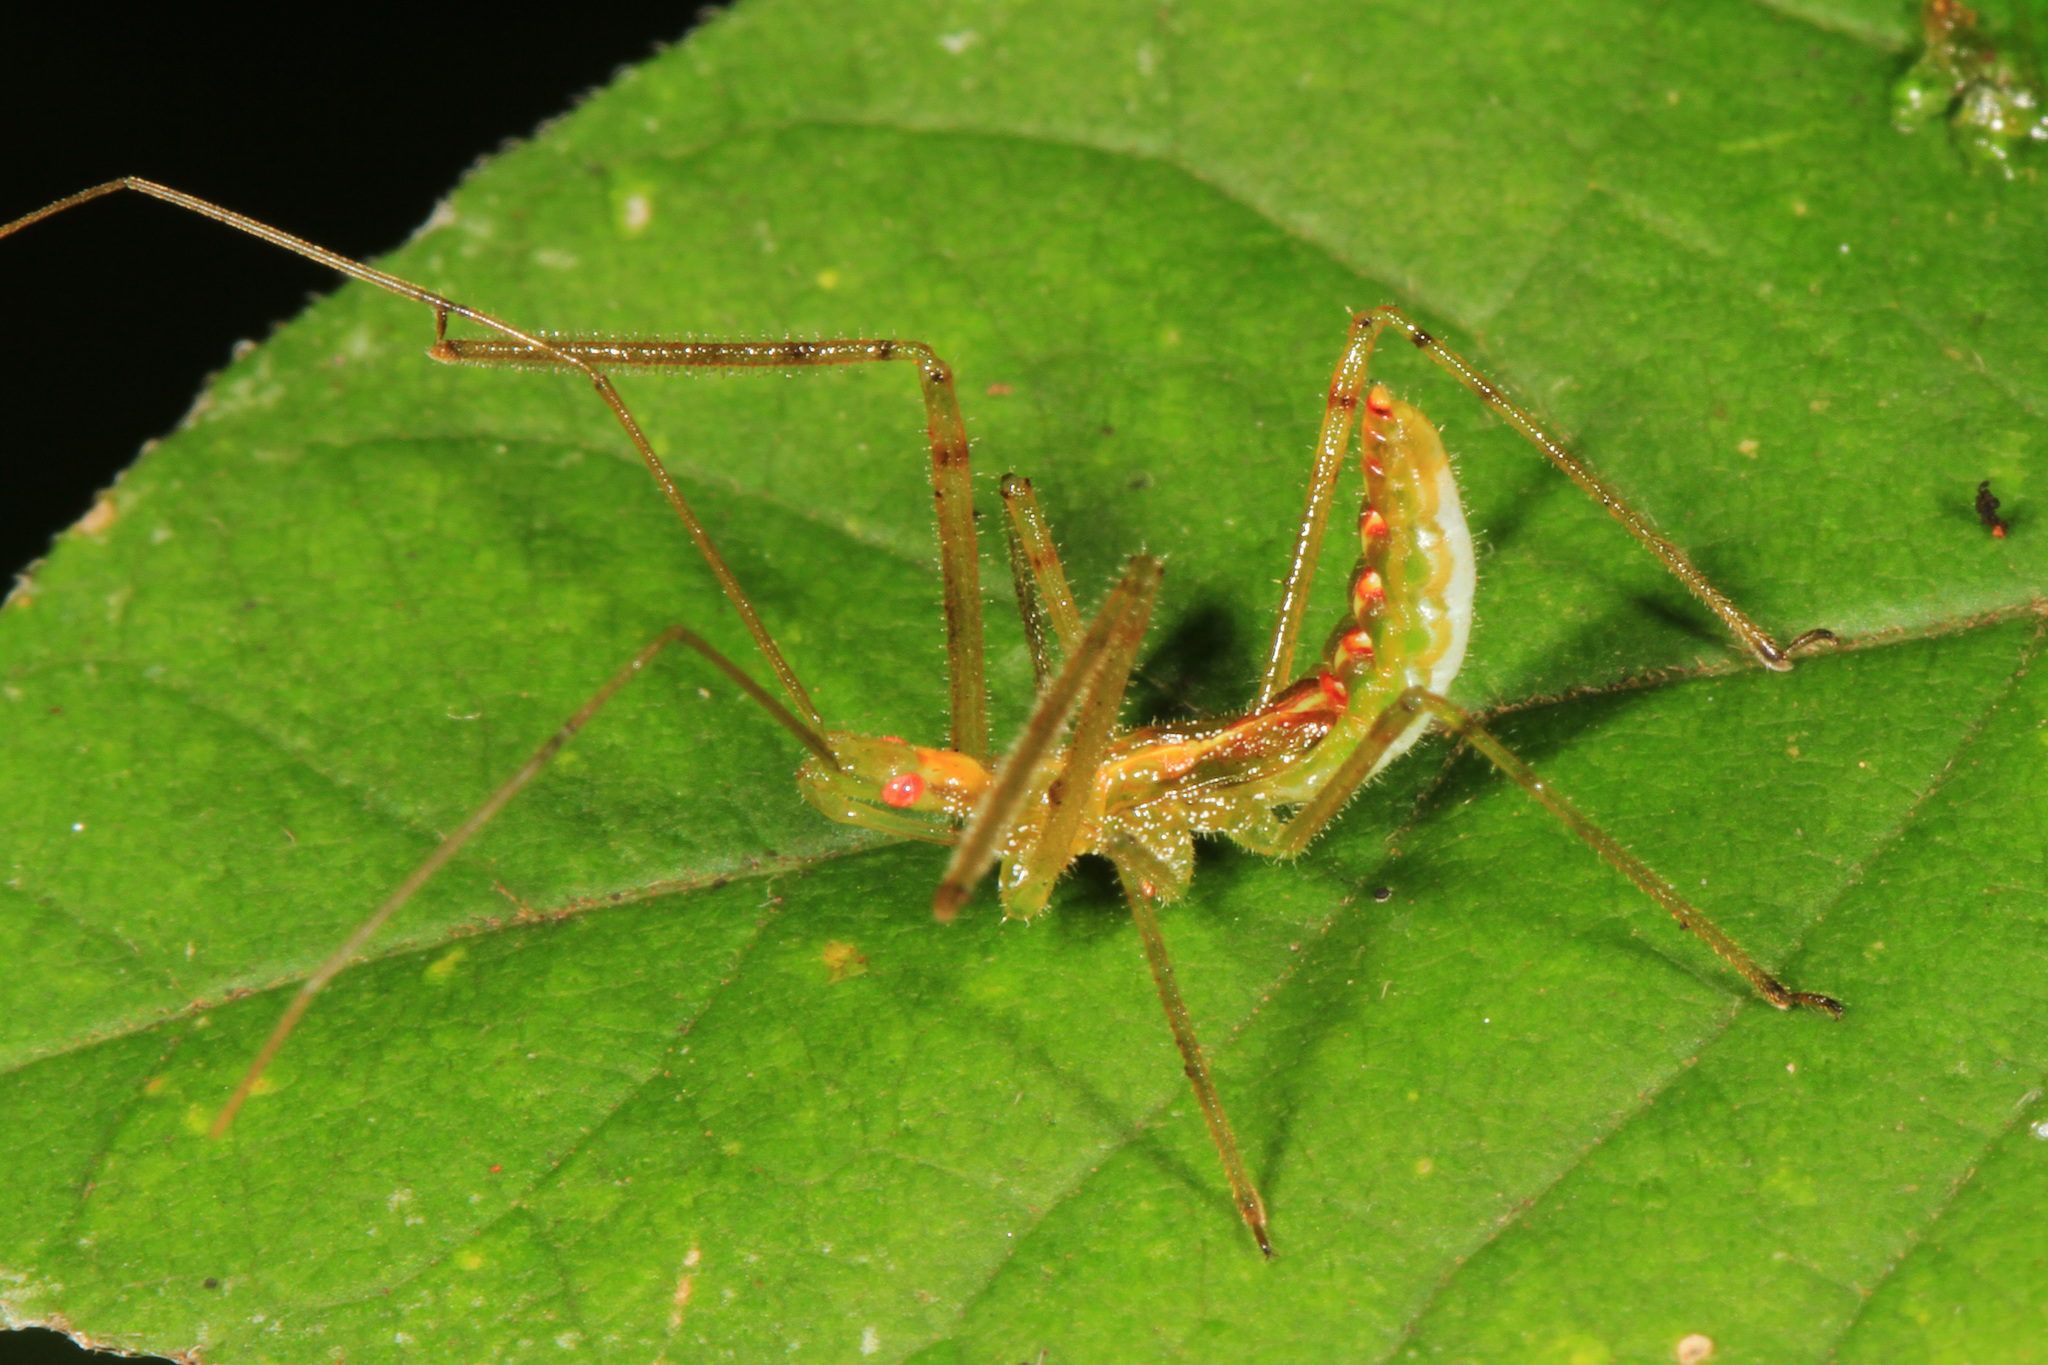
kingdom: Animalia
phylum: Arthropoda
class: Insecta
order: Hemiptera
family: Reduviidae
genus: Zelus
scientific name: Zelus luridus
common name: Pale green assassin bug
